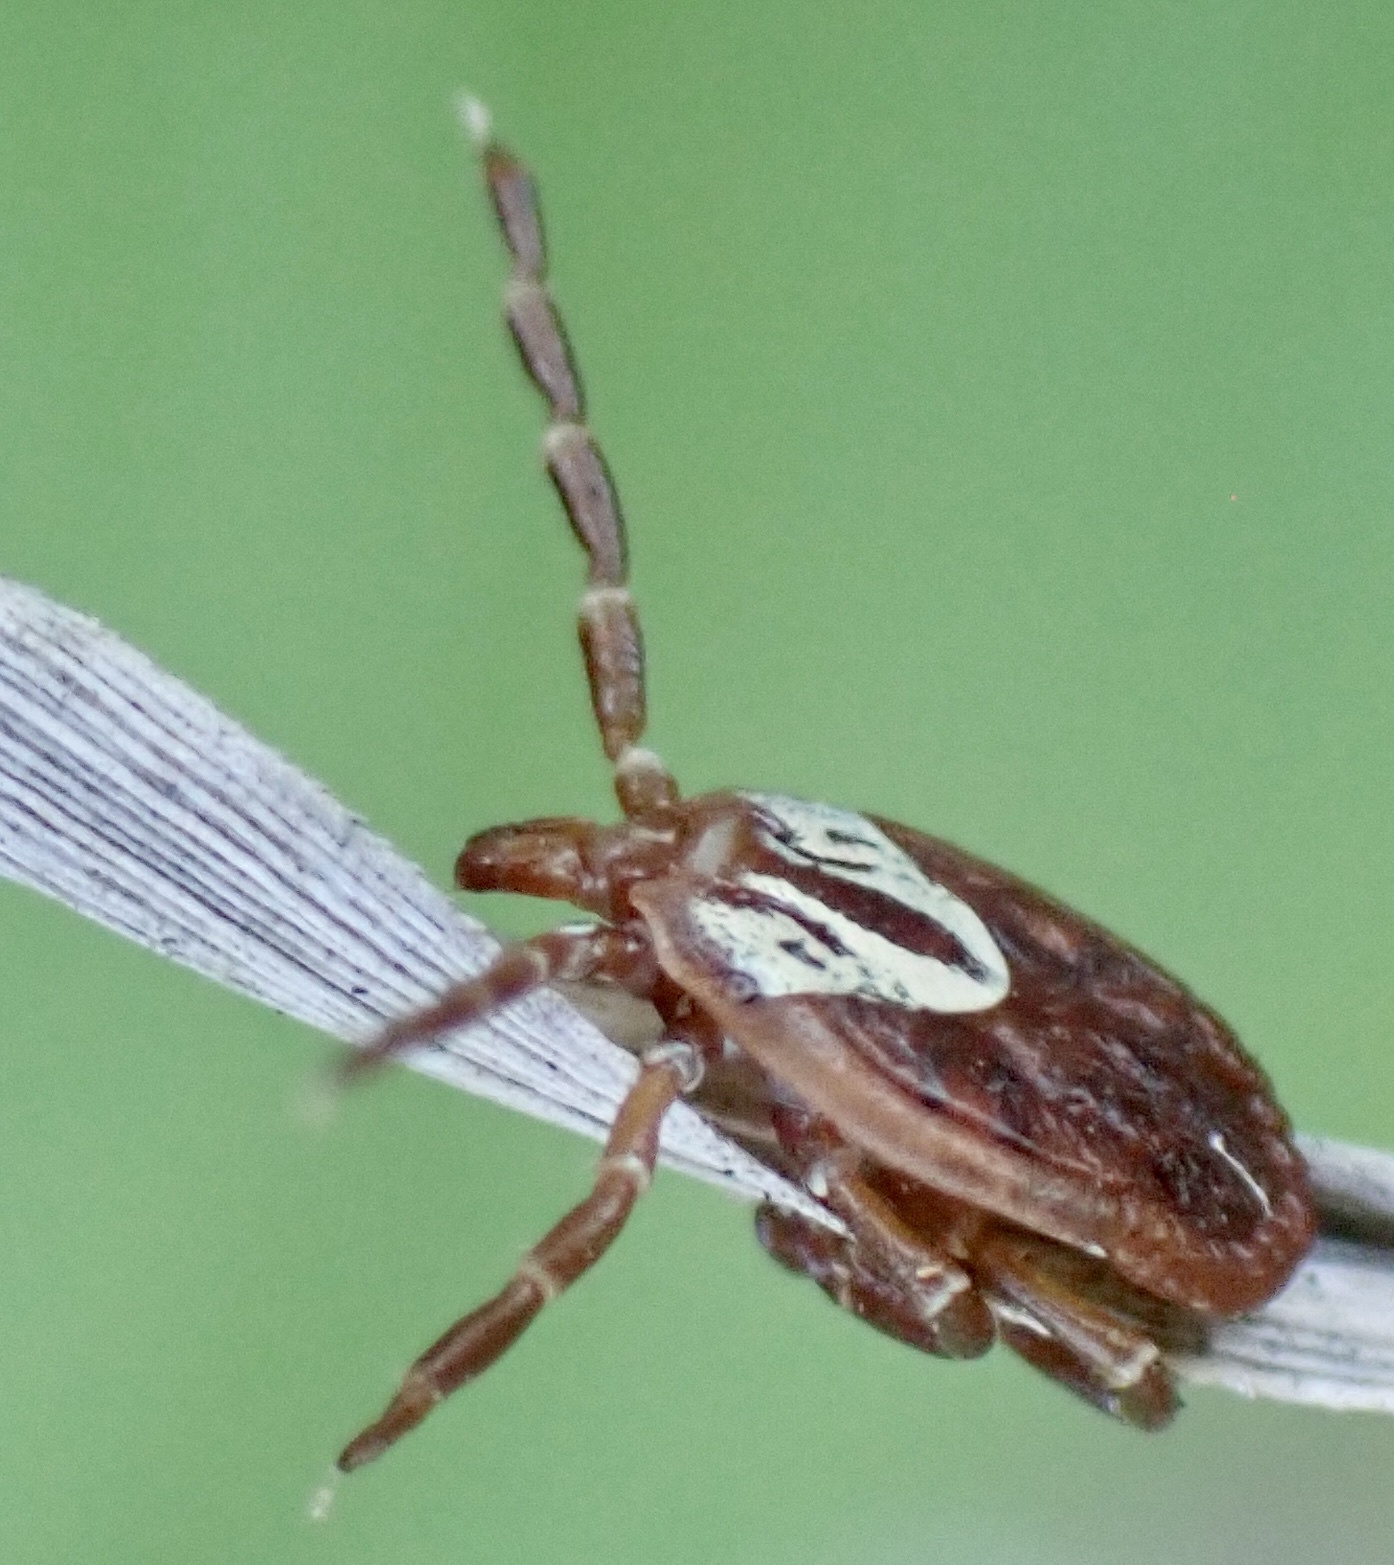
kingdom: Animalia
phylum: Arthropoda
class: Arachnida
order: Ixodida
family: Ixodidae
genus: Amblyomma
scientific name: Amblyomma maculatum
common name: Gulf coast tick
